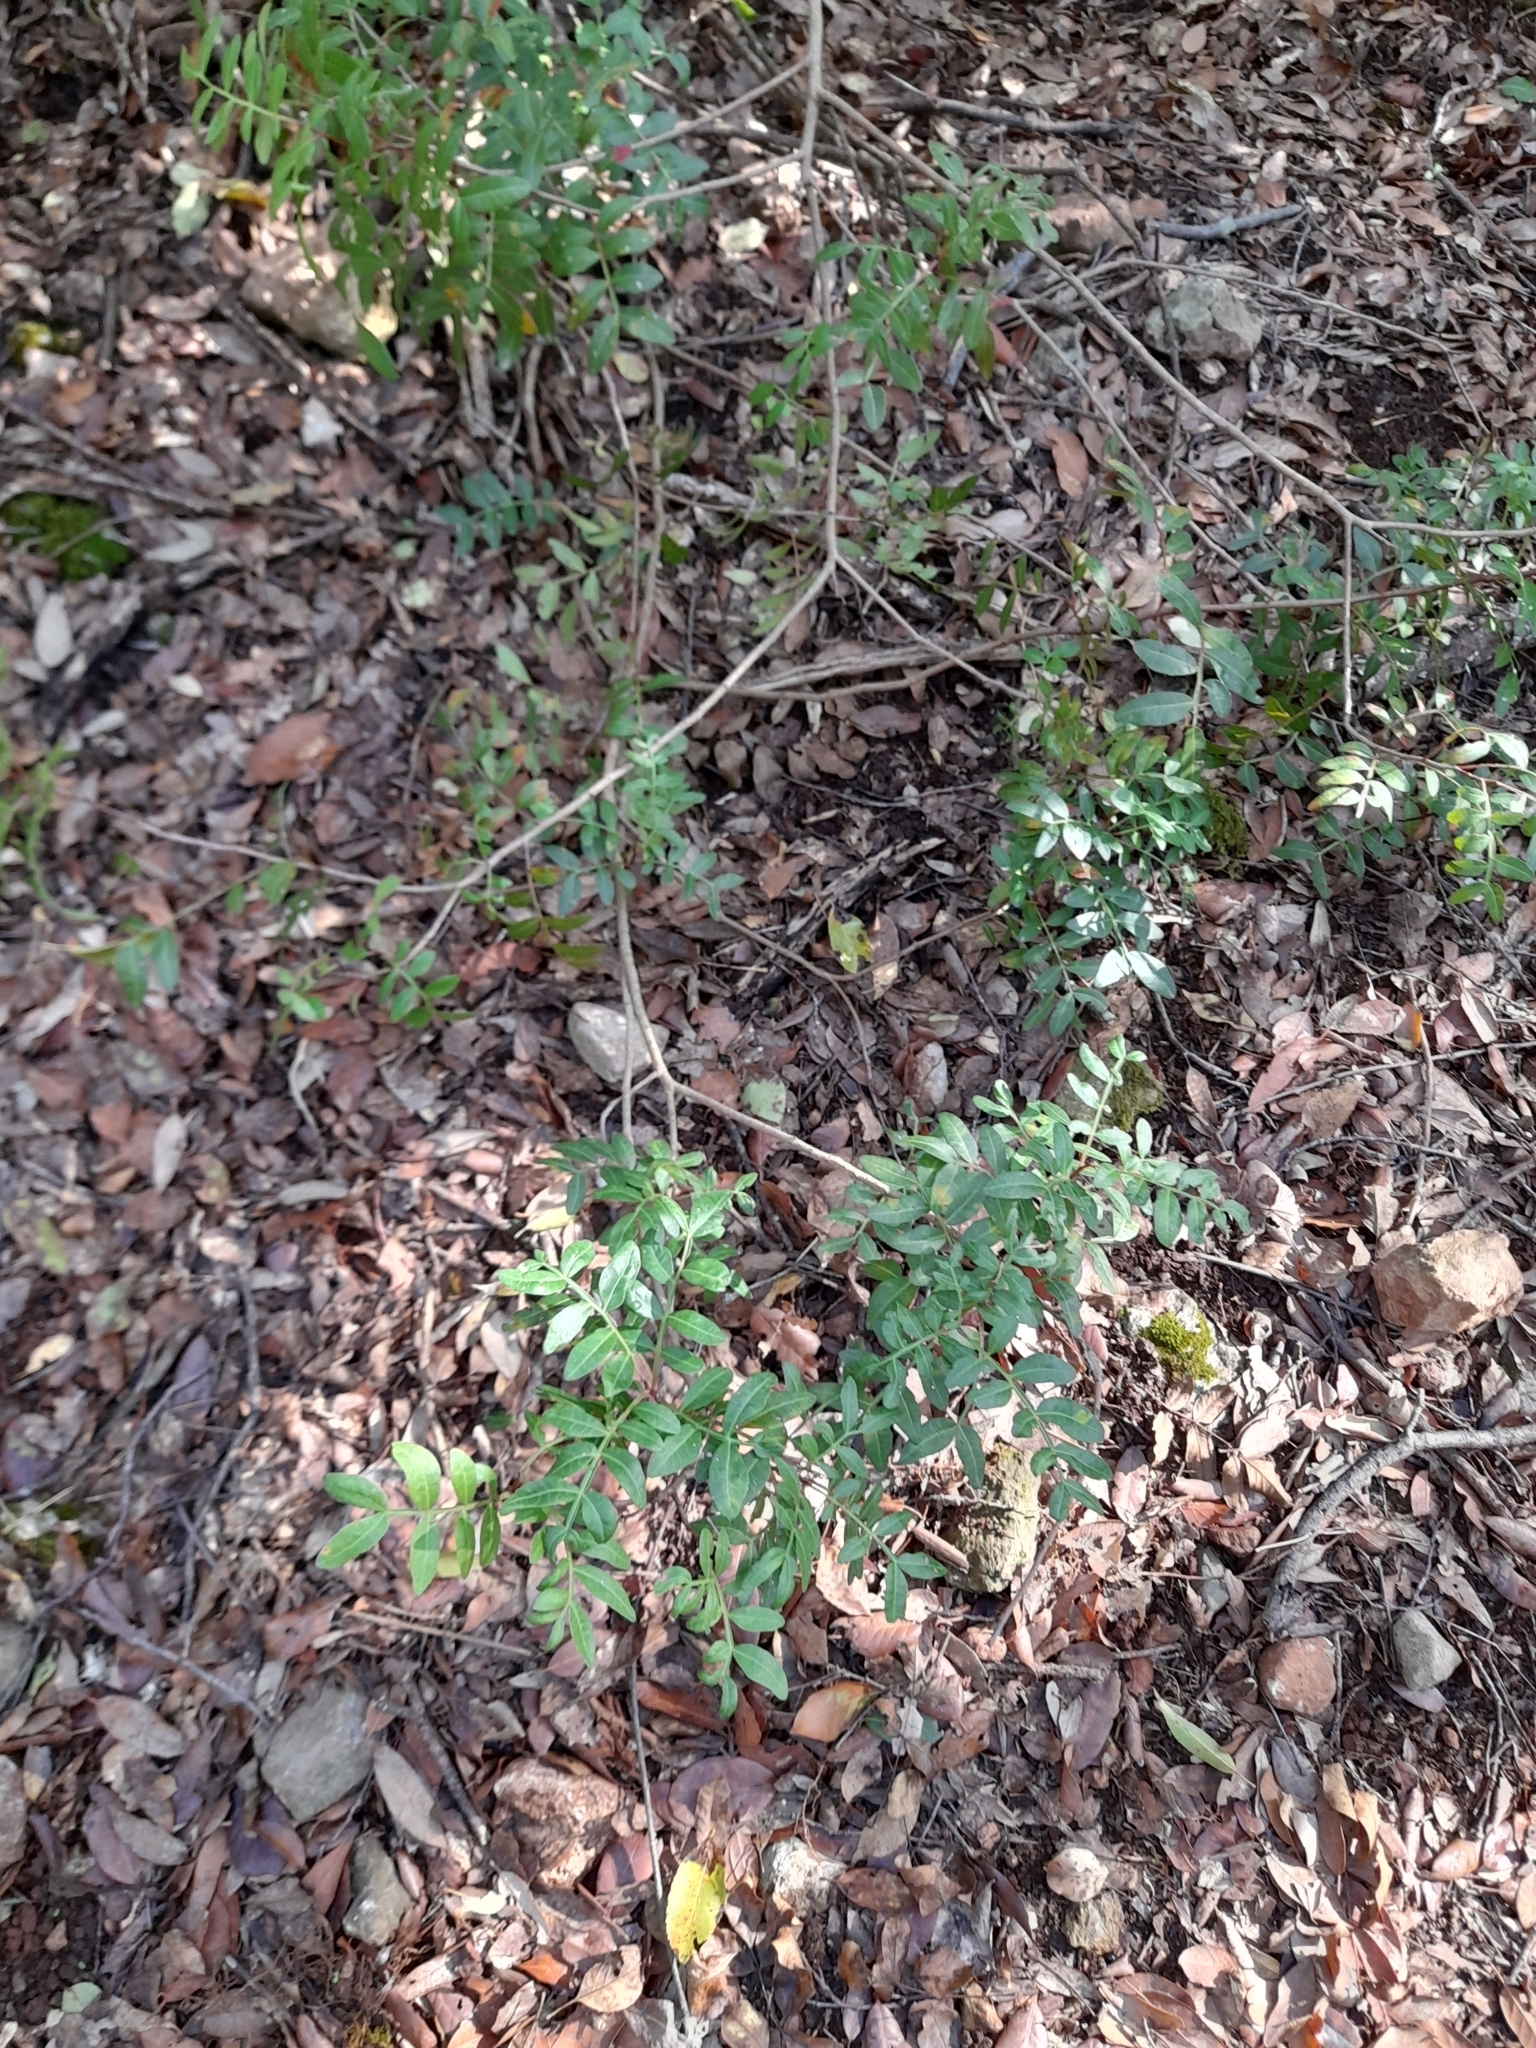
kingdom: Plantae
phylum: Tracheophyta
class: Magnoliopsida
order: Sapindales
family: Anacardiaceae
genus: Pistacia
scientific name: Pistacia lentiscus
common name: Lentisk
